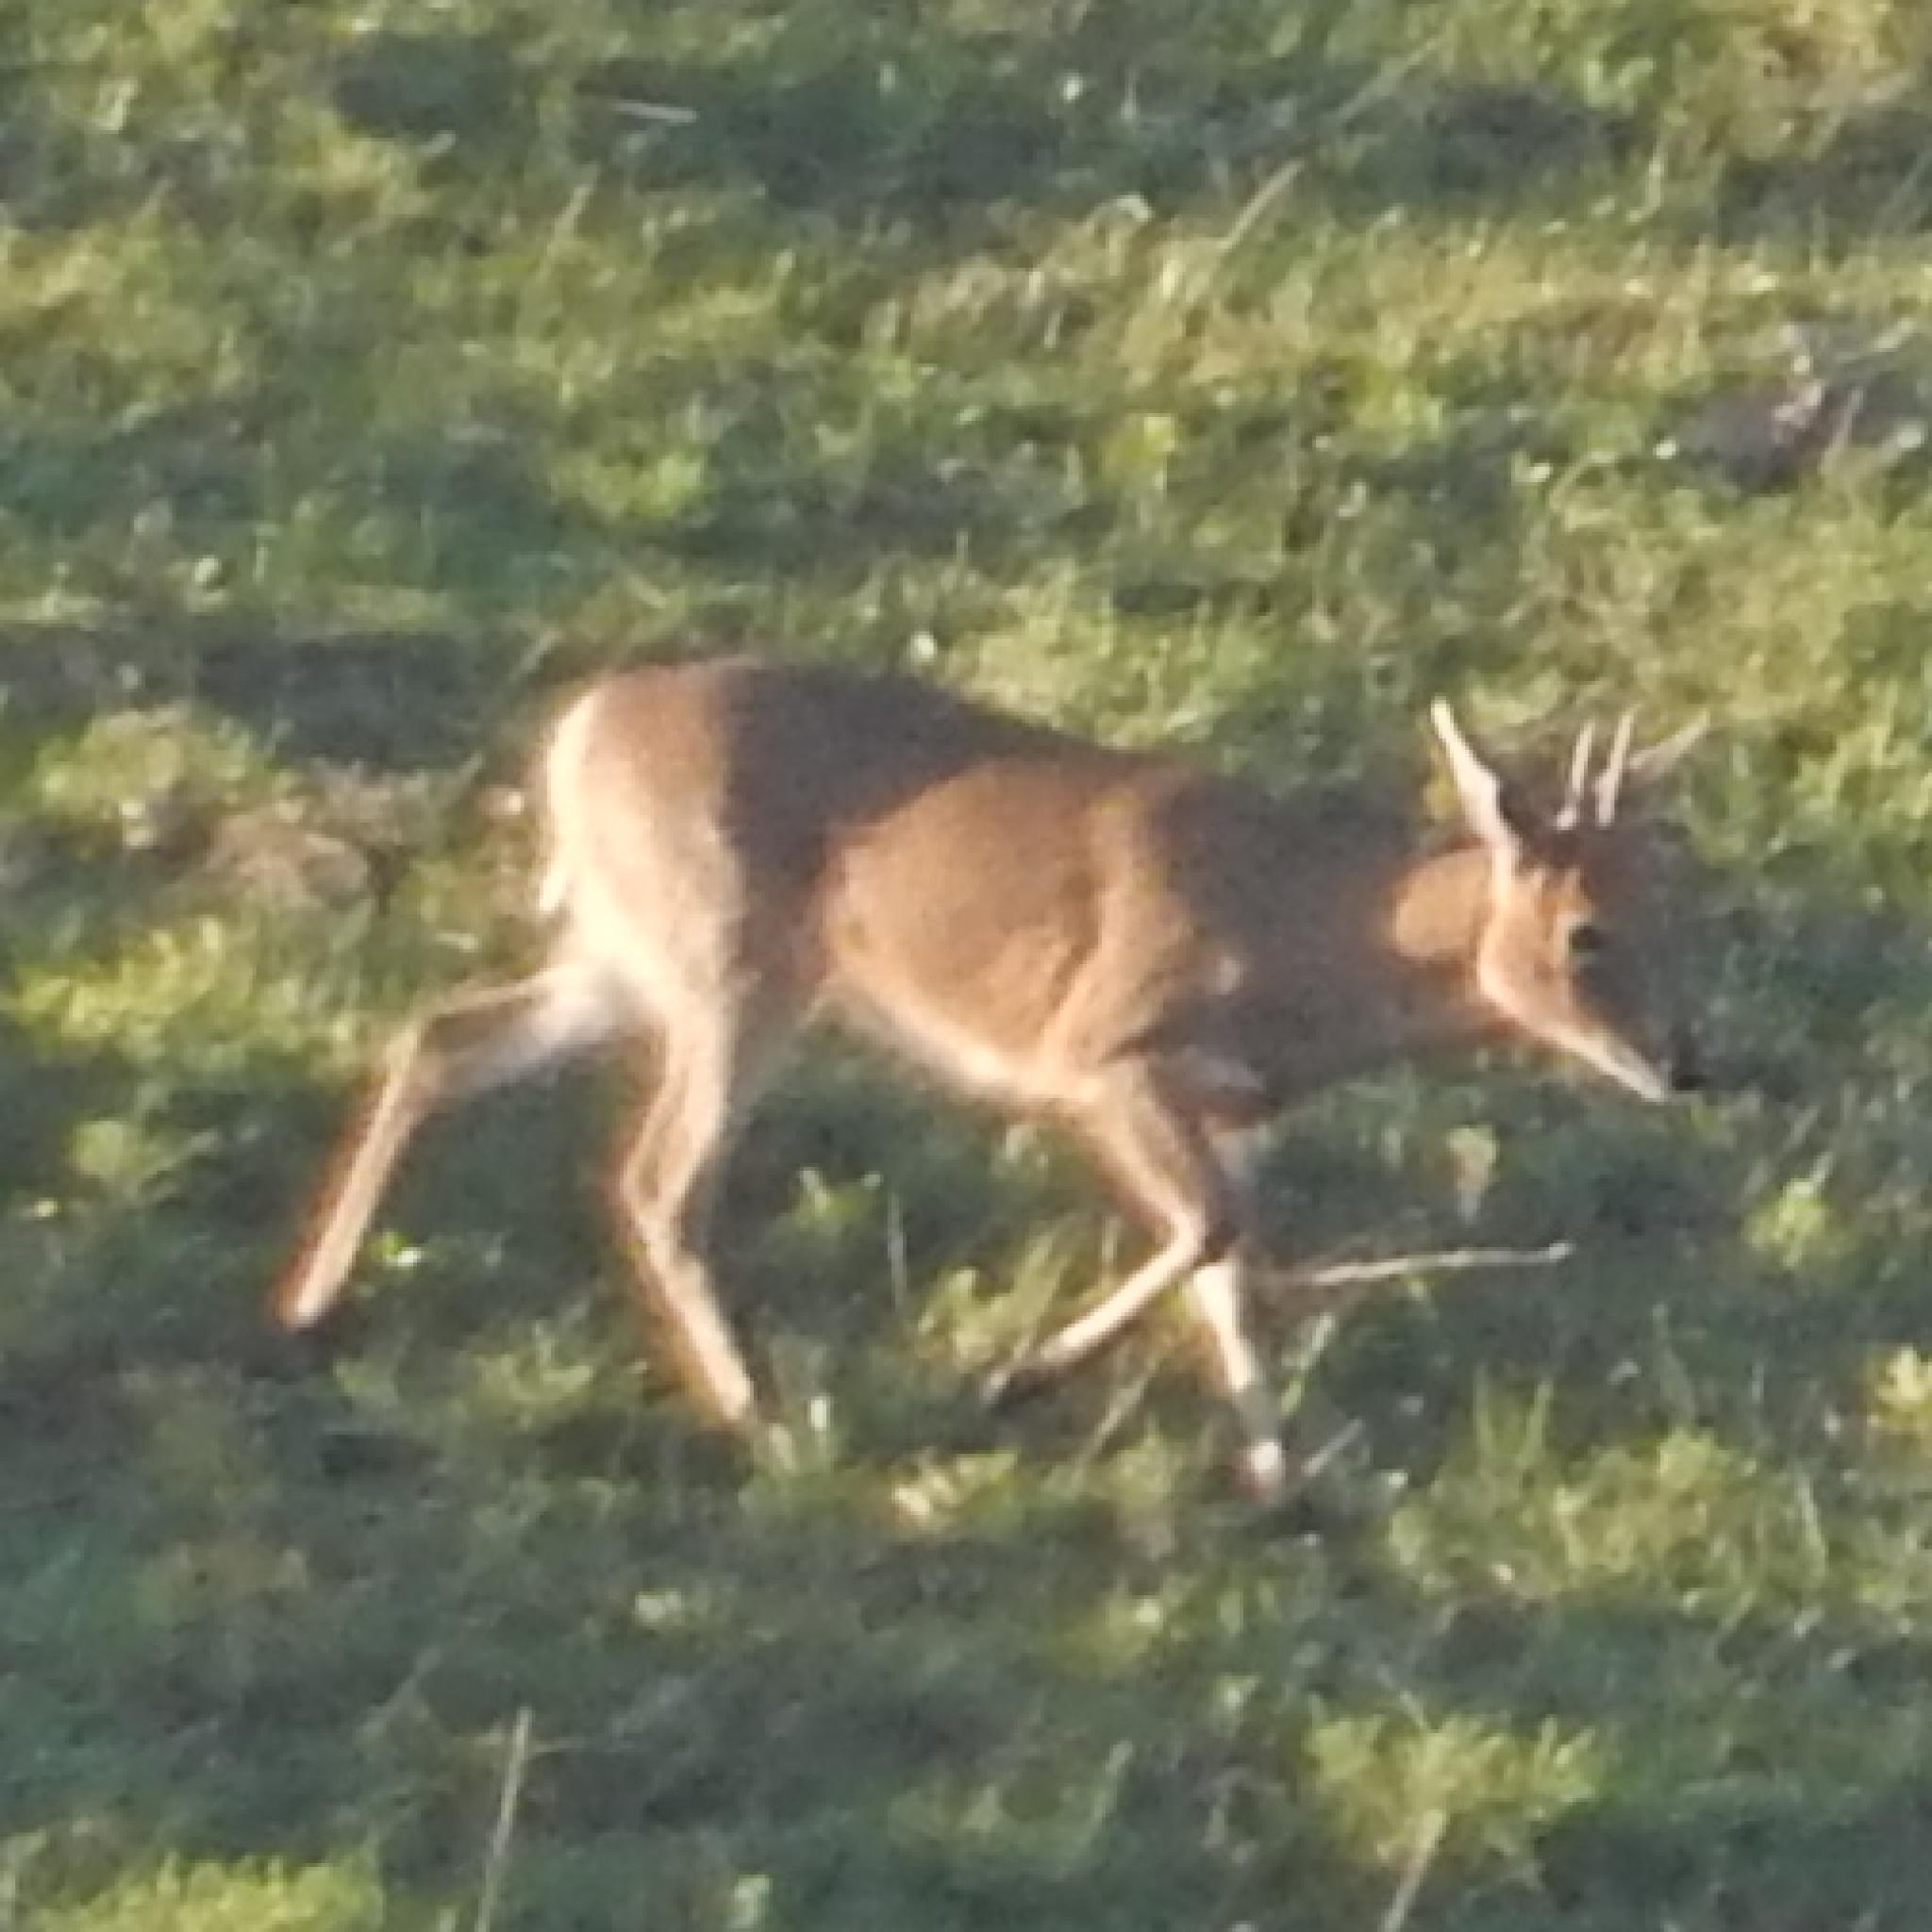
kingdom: Animalia
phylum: Chordata
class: Mammalia
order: Artiodactyla
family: Bovidae
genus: Sylvicapra
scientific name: Sylvicapra grimmia
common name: Bush duiker
